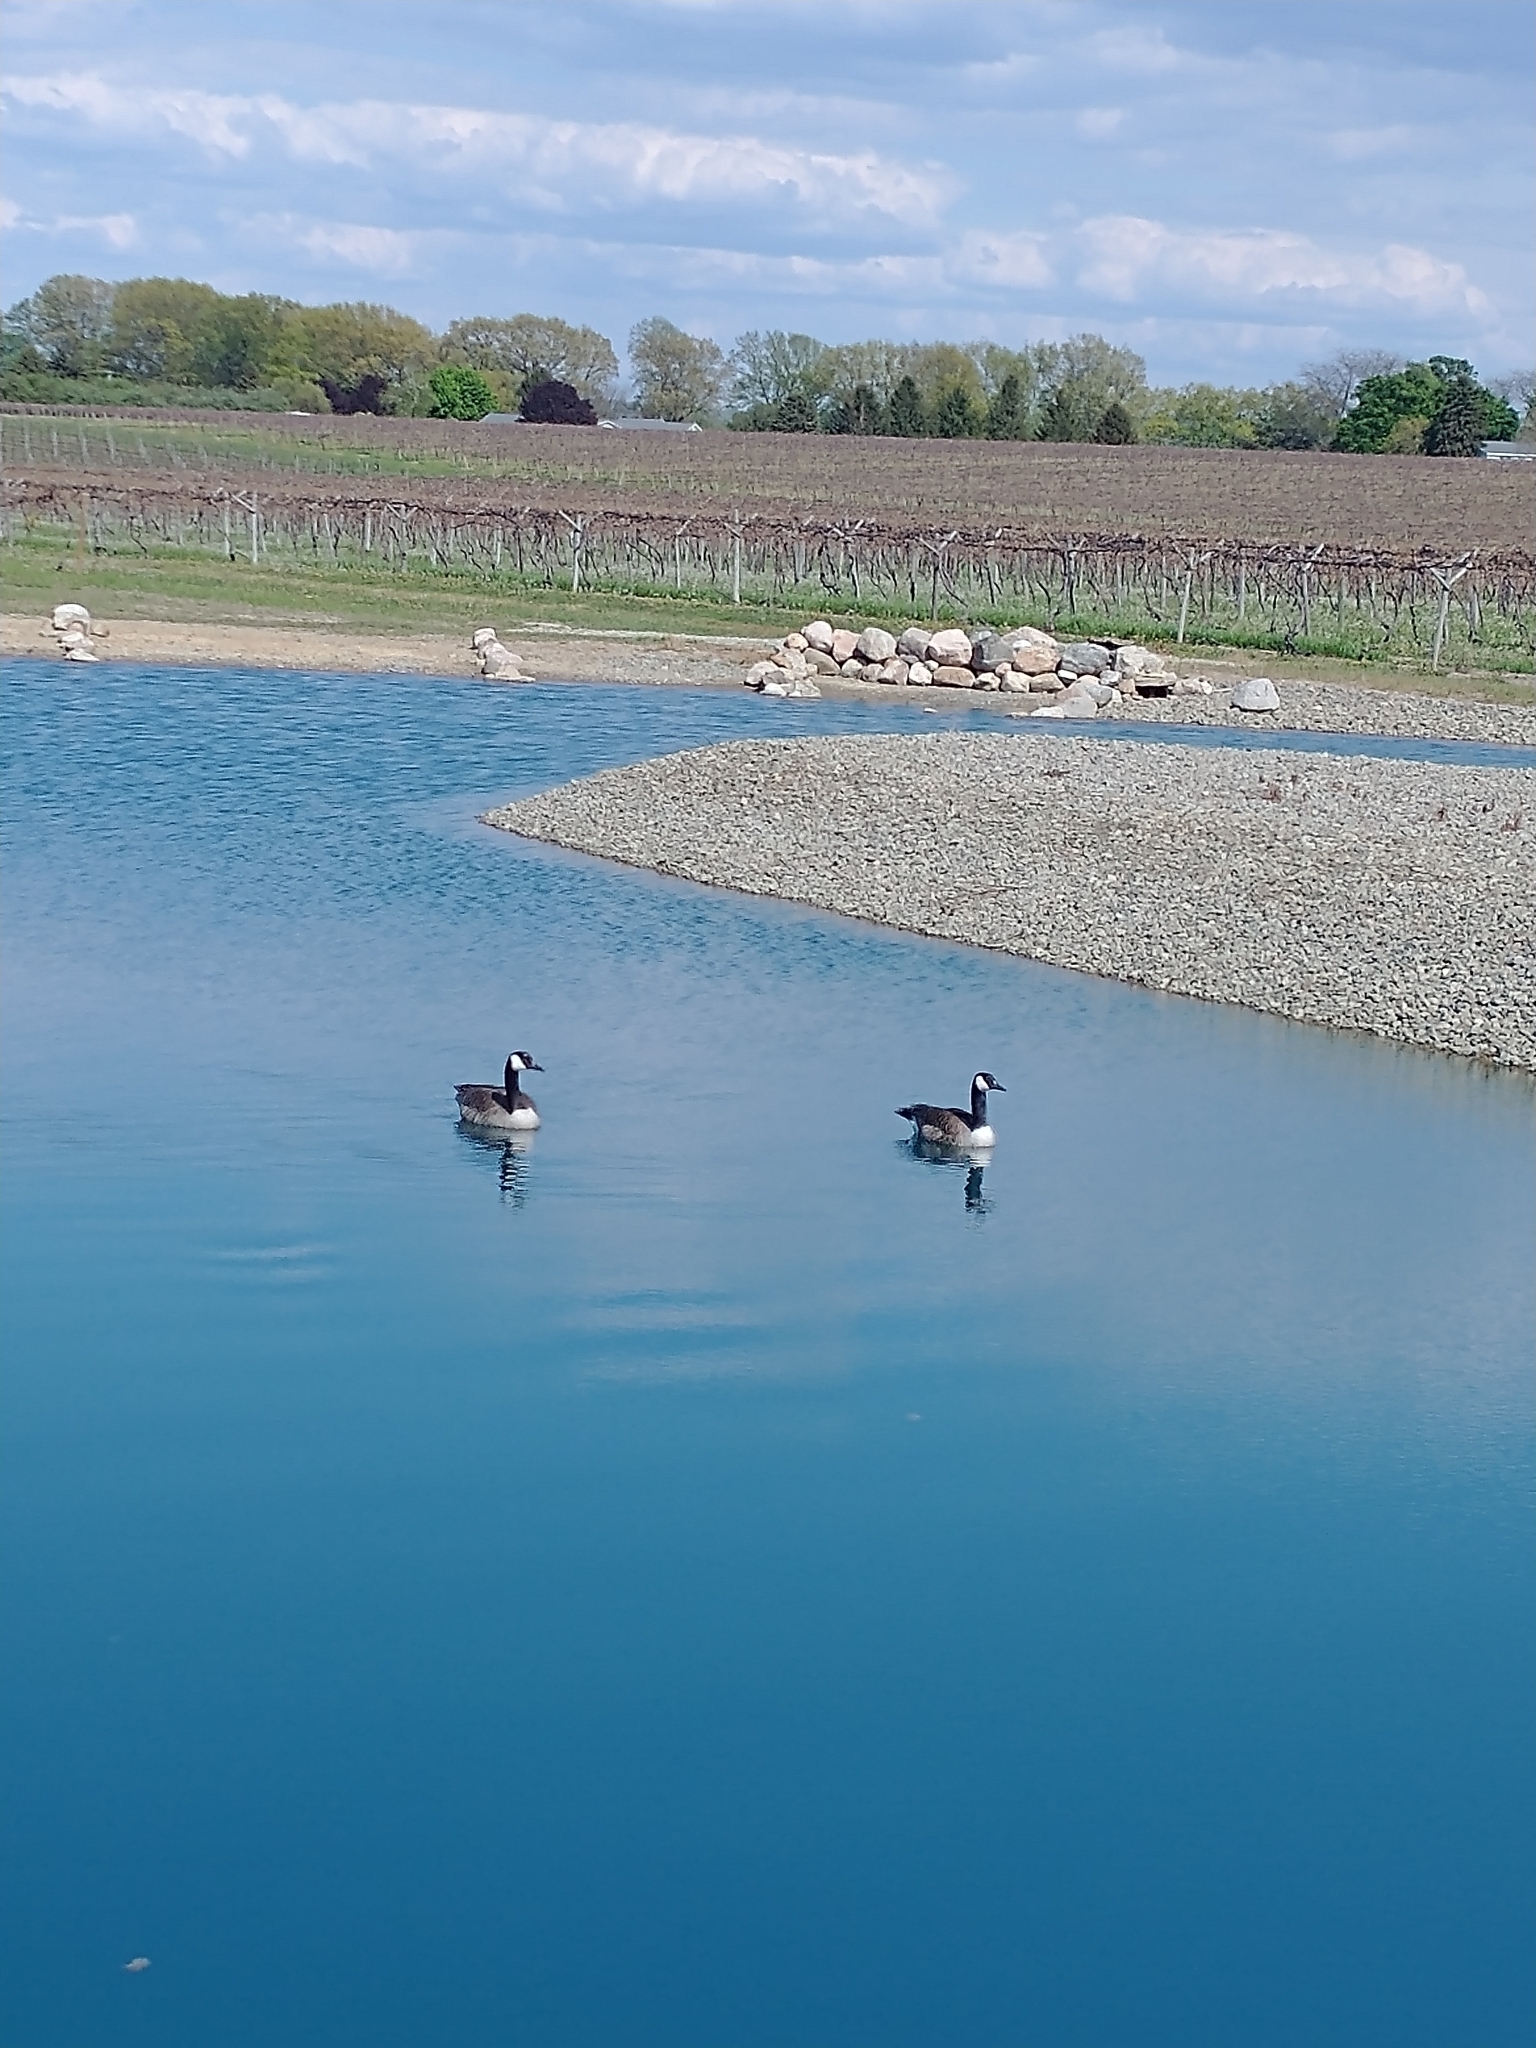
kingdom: Animalia
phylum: Chordata
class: Aves
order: Anseriformes
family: Anatidae
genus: Branta
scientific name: Branta canadensis
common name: Canada goose
